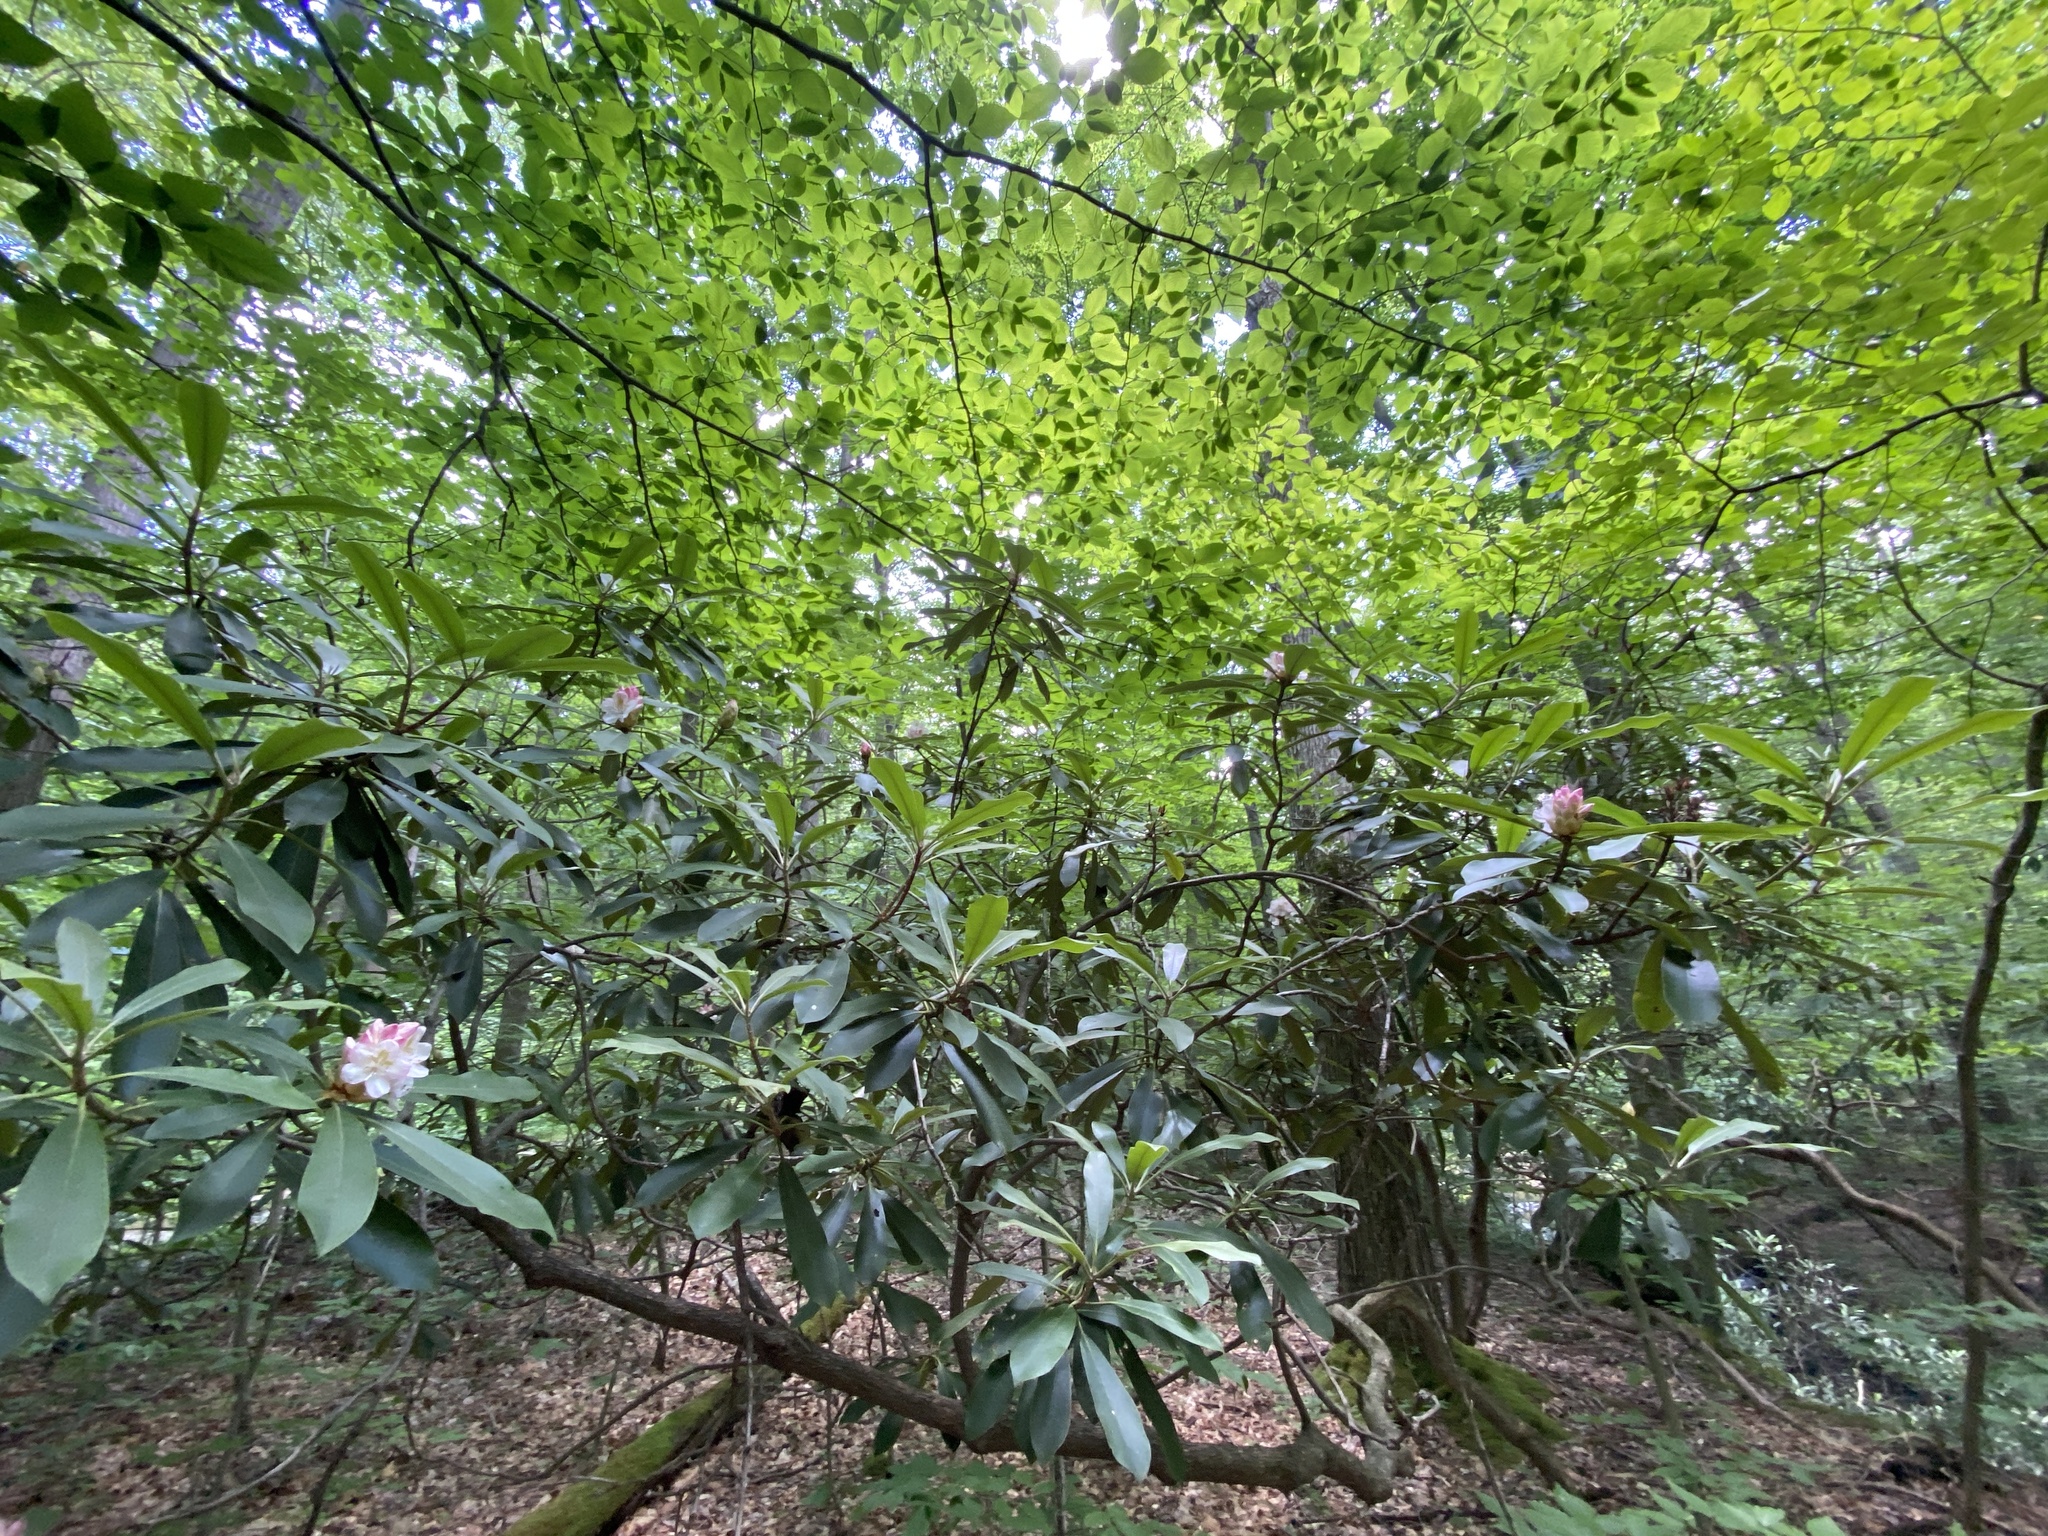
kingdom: Plantae
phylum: Tracheophyta
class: Magnoliopsida
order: Ericales
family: Ericaceae
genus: Rhododendron
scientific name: Rhododendron maximum
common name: Great rhododendron
